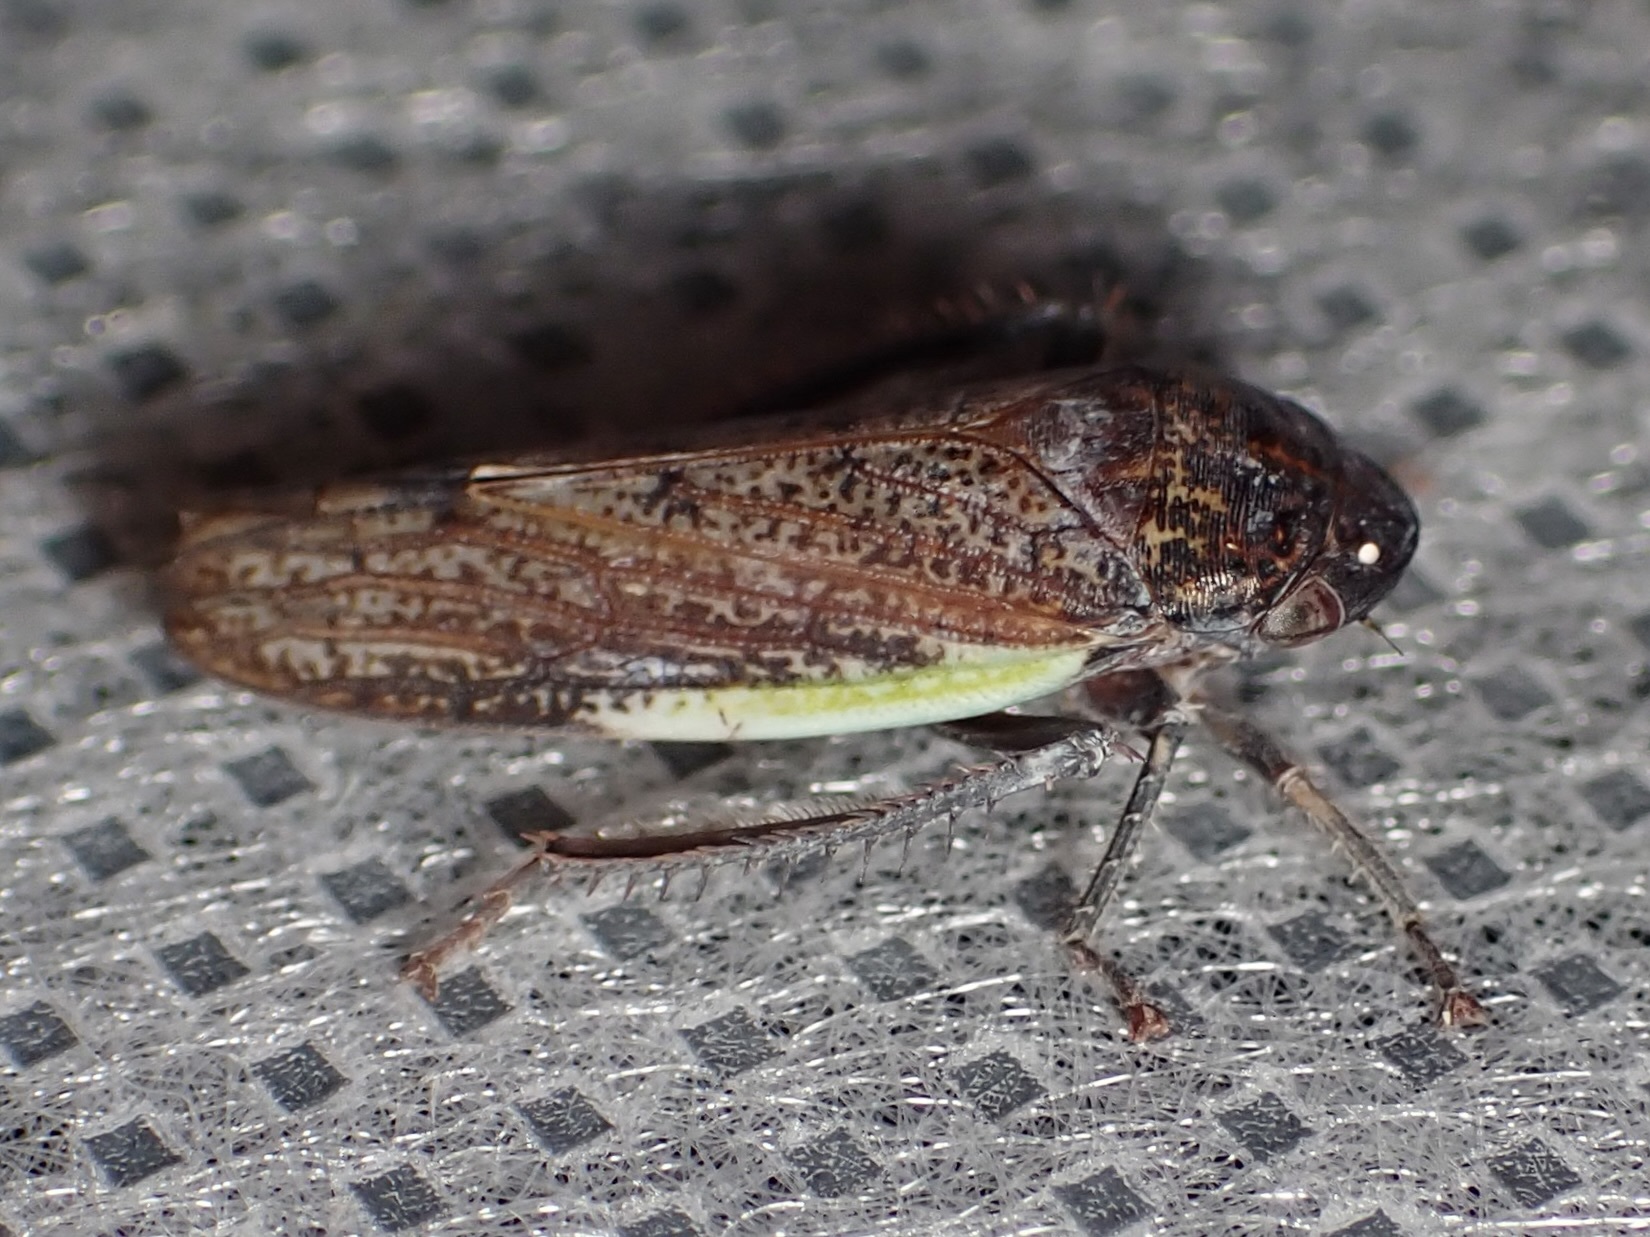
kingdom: Animalia
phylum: Arthropoda
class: Insecta
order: Hemiptera
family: Cicadellidae
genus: Hamana
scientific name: Hamana gelbata
